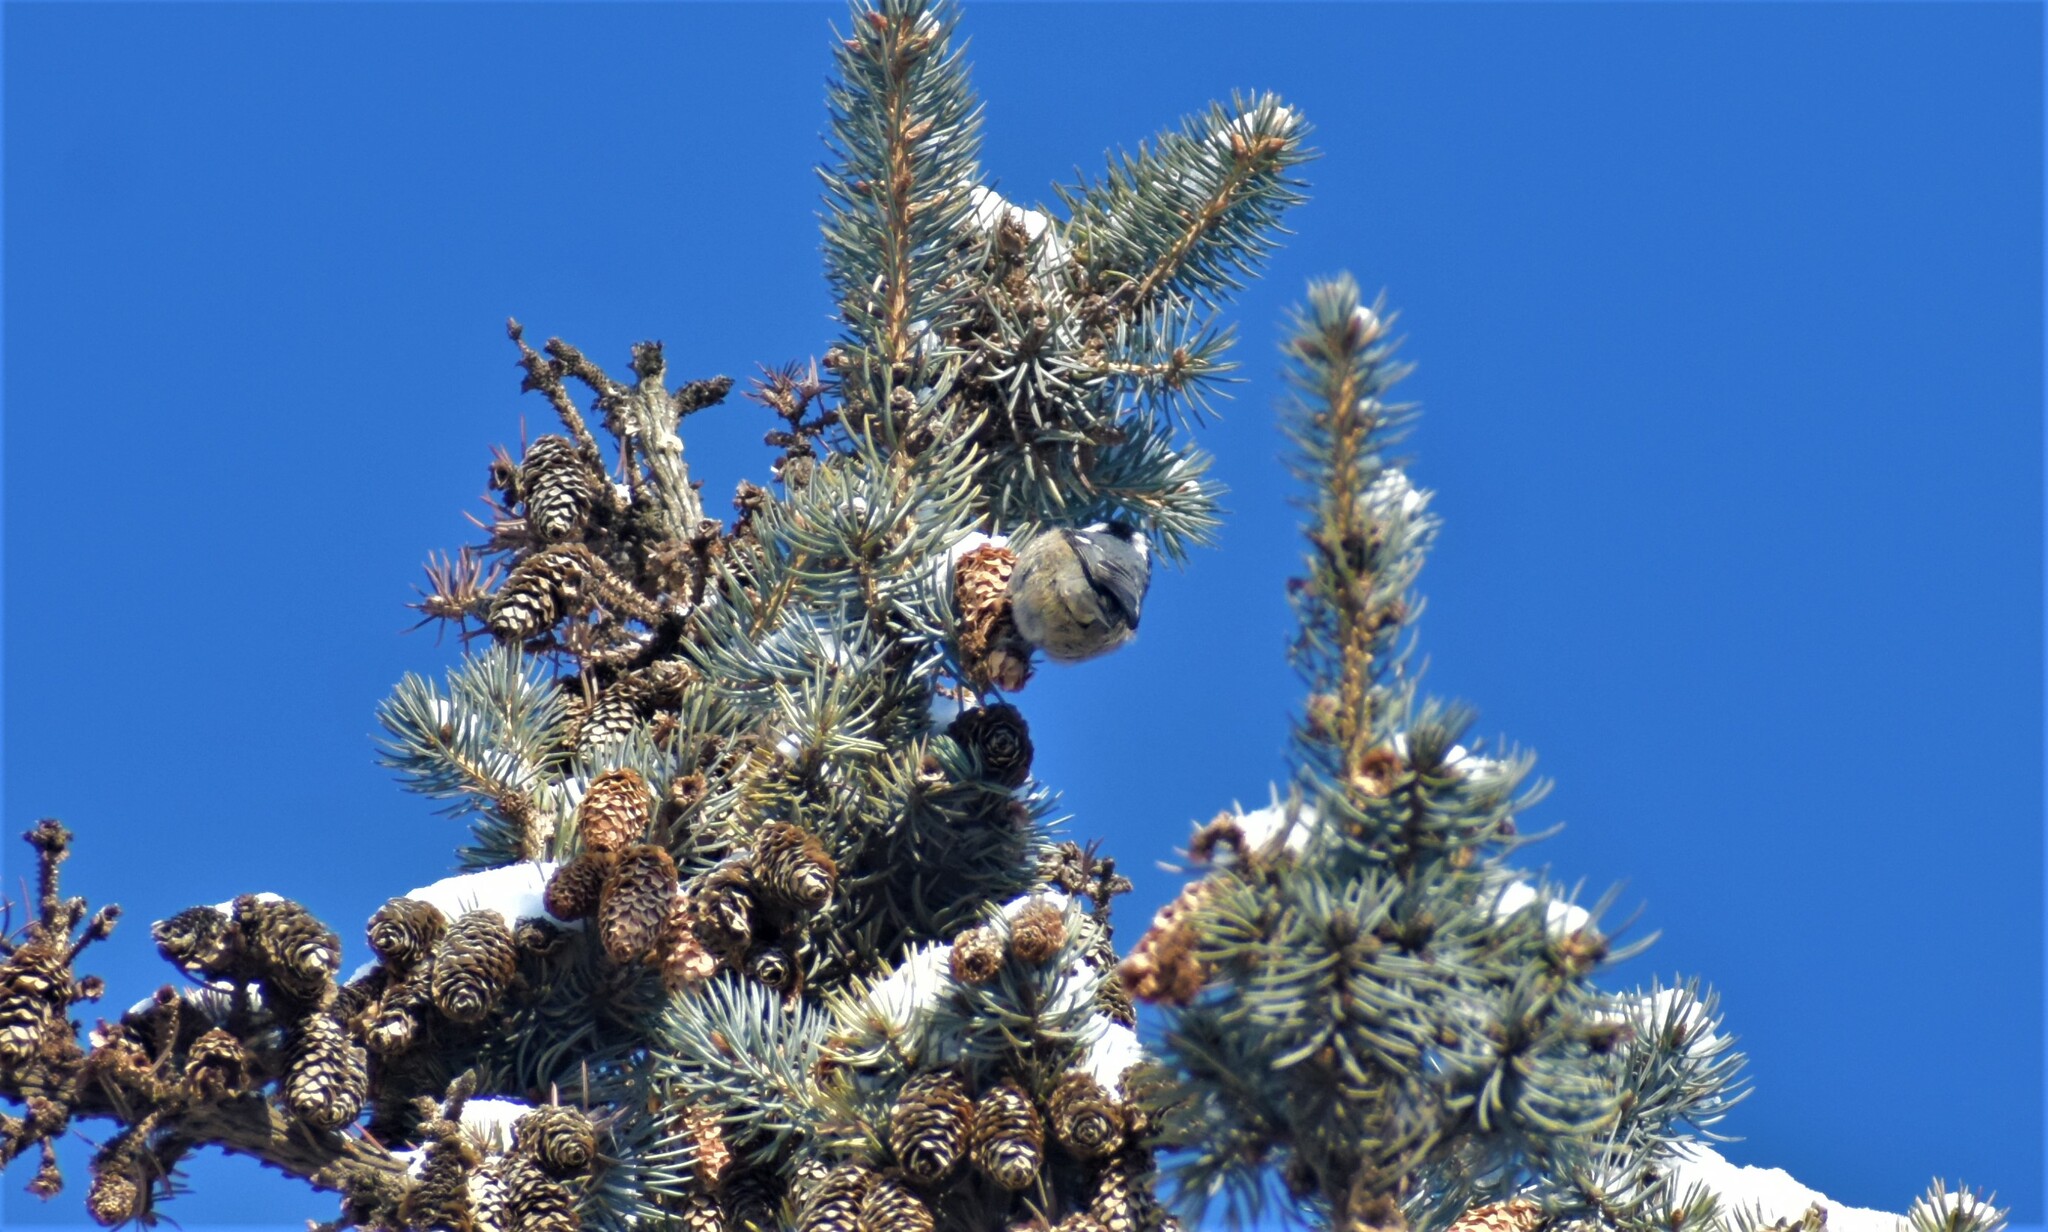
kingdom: Animalia
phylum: Chordata
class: Aves
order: Passeriformes
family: Paridae
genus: Periparus
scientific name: Periparus ater
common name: Coal tit
